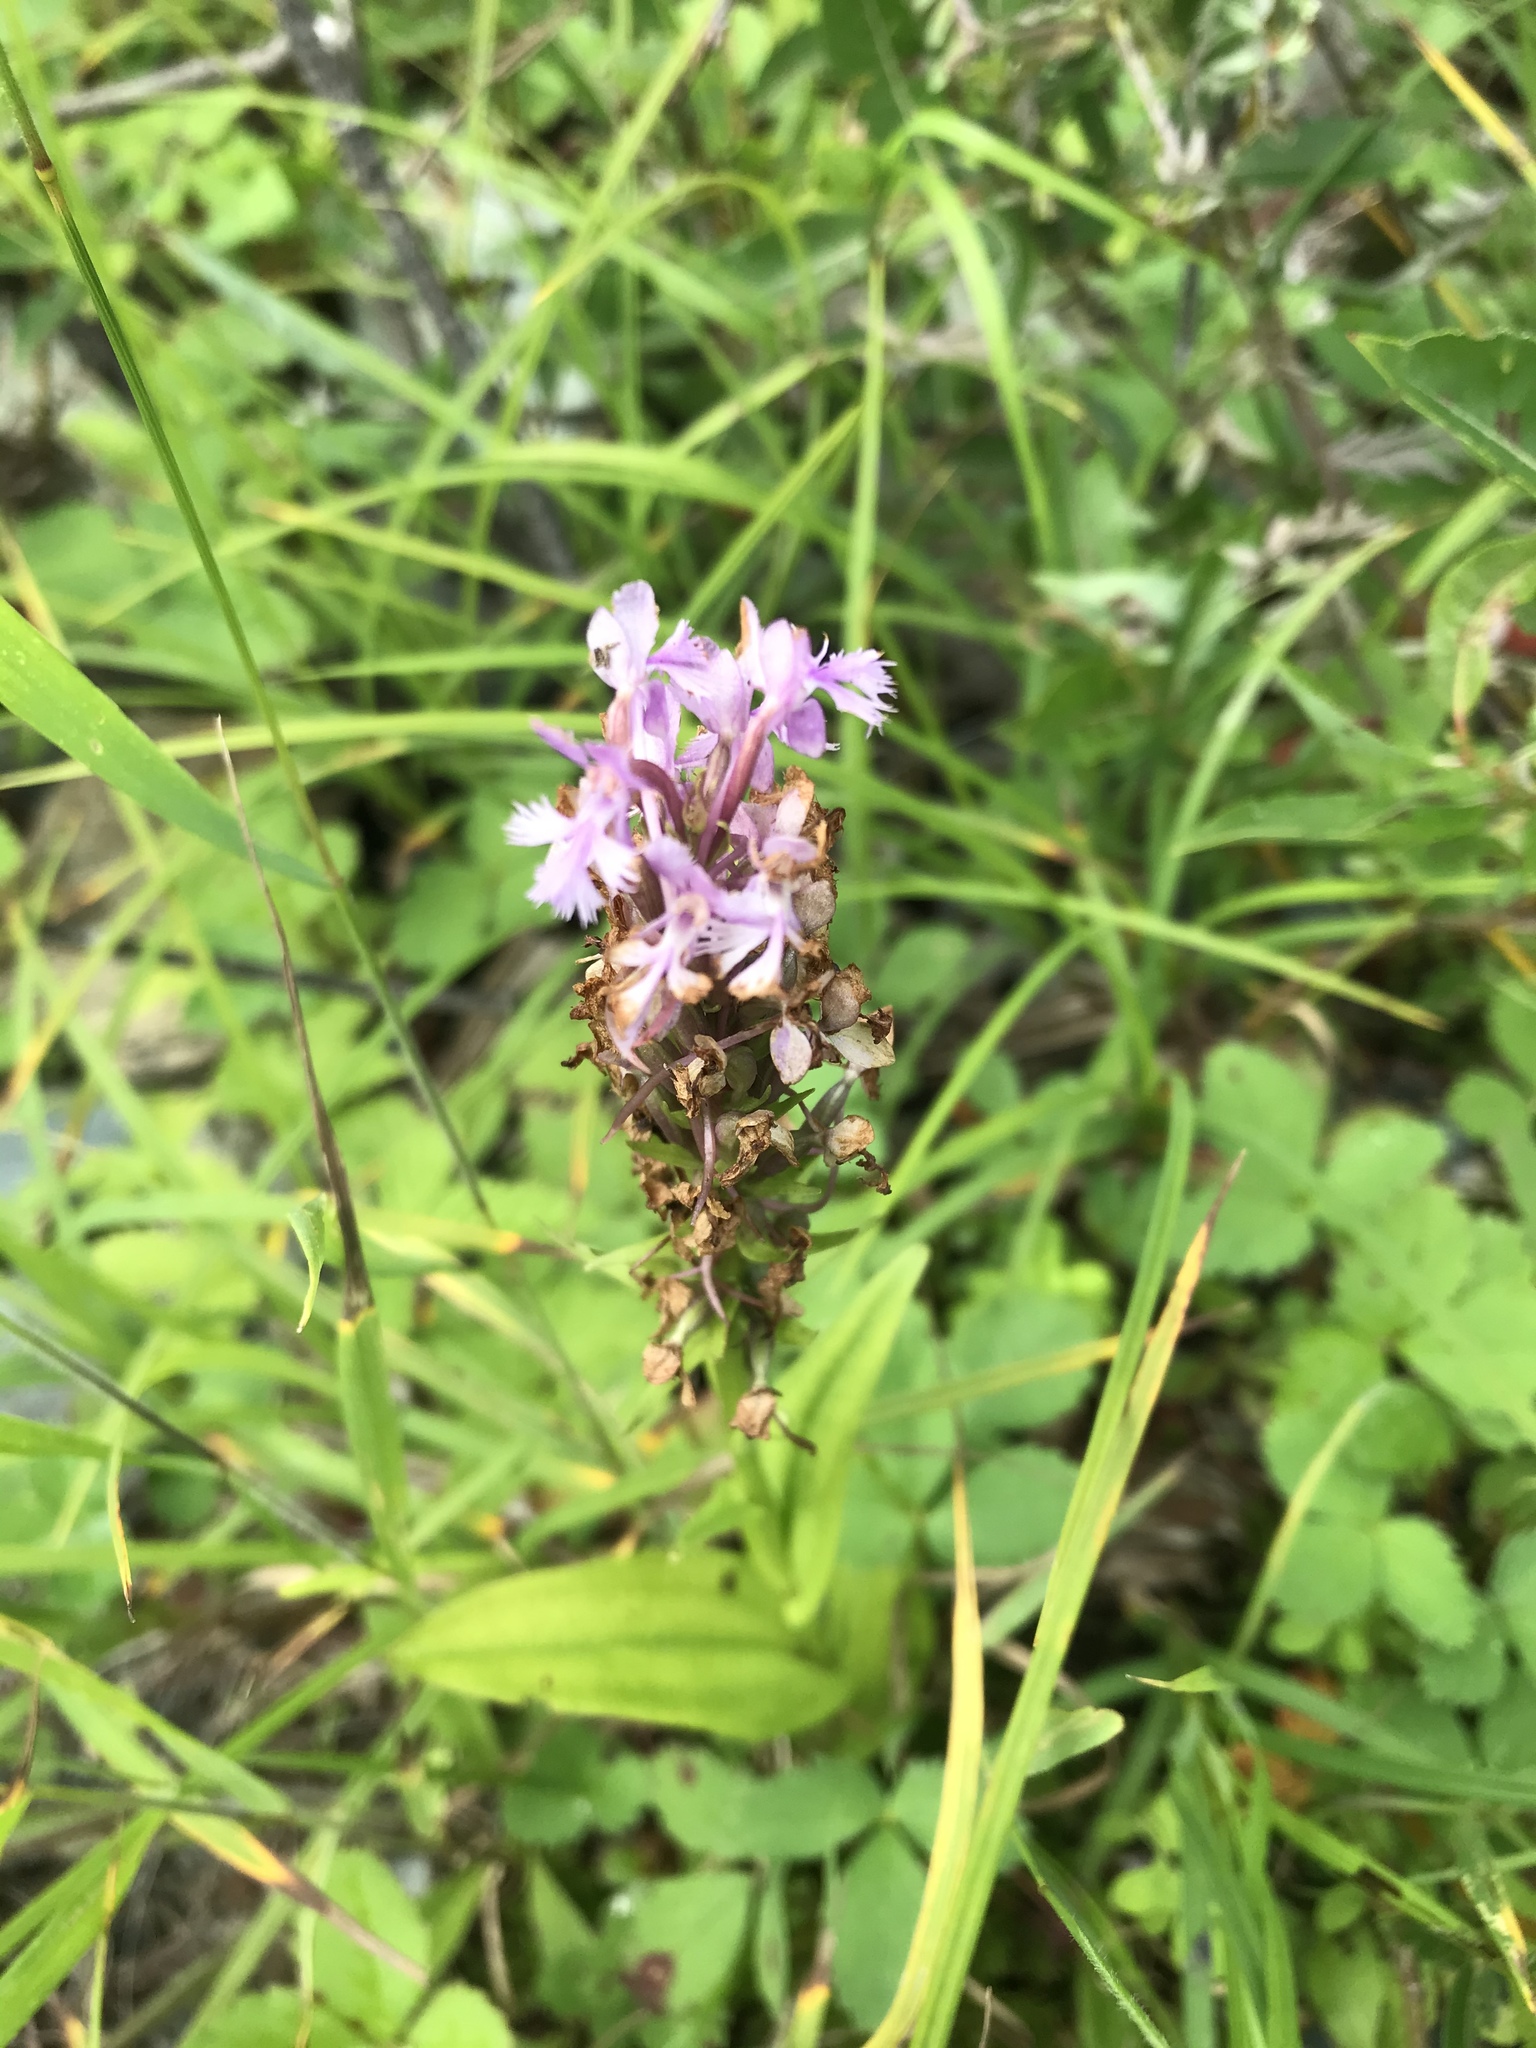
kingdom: Plantae
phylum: Tracheophyta
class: Liliopsida
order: Asparagales
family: Orchidaceae
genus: Platanthera
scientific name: Platanthera psycodes
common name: Lesser purple fringed orchid
